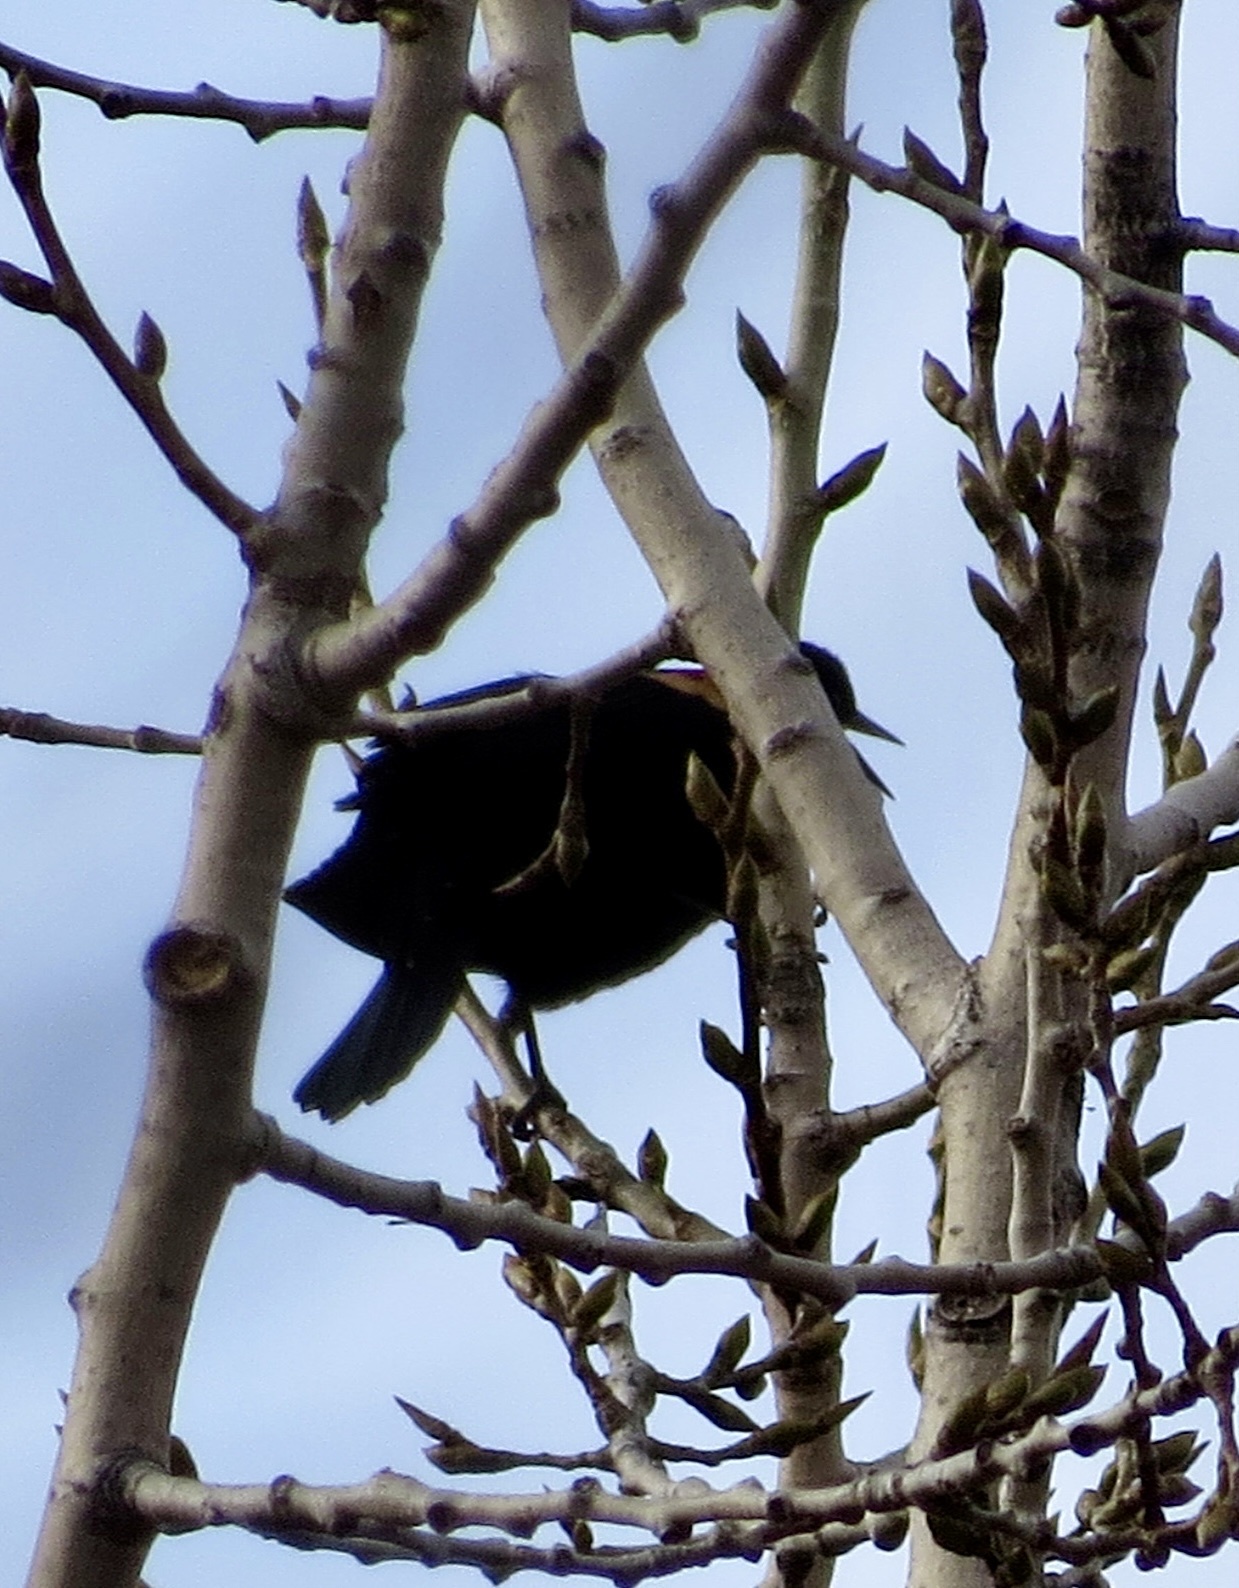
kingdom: Animalia
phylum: Chordata
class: Aves
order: Passeriformes
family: Icteridae
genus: Agelaius
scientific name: Agelaius phoeniceus
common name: Red-winged blackbird
